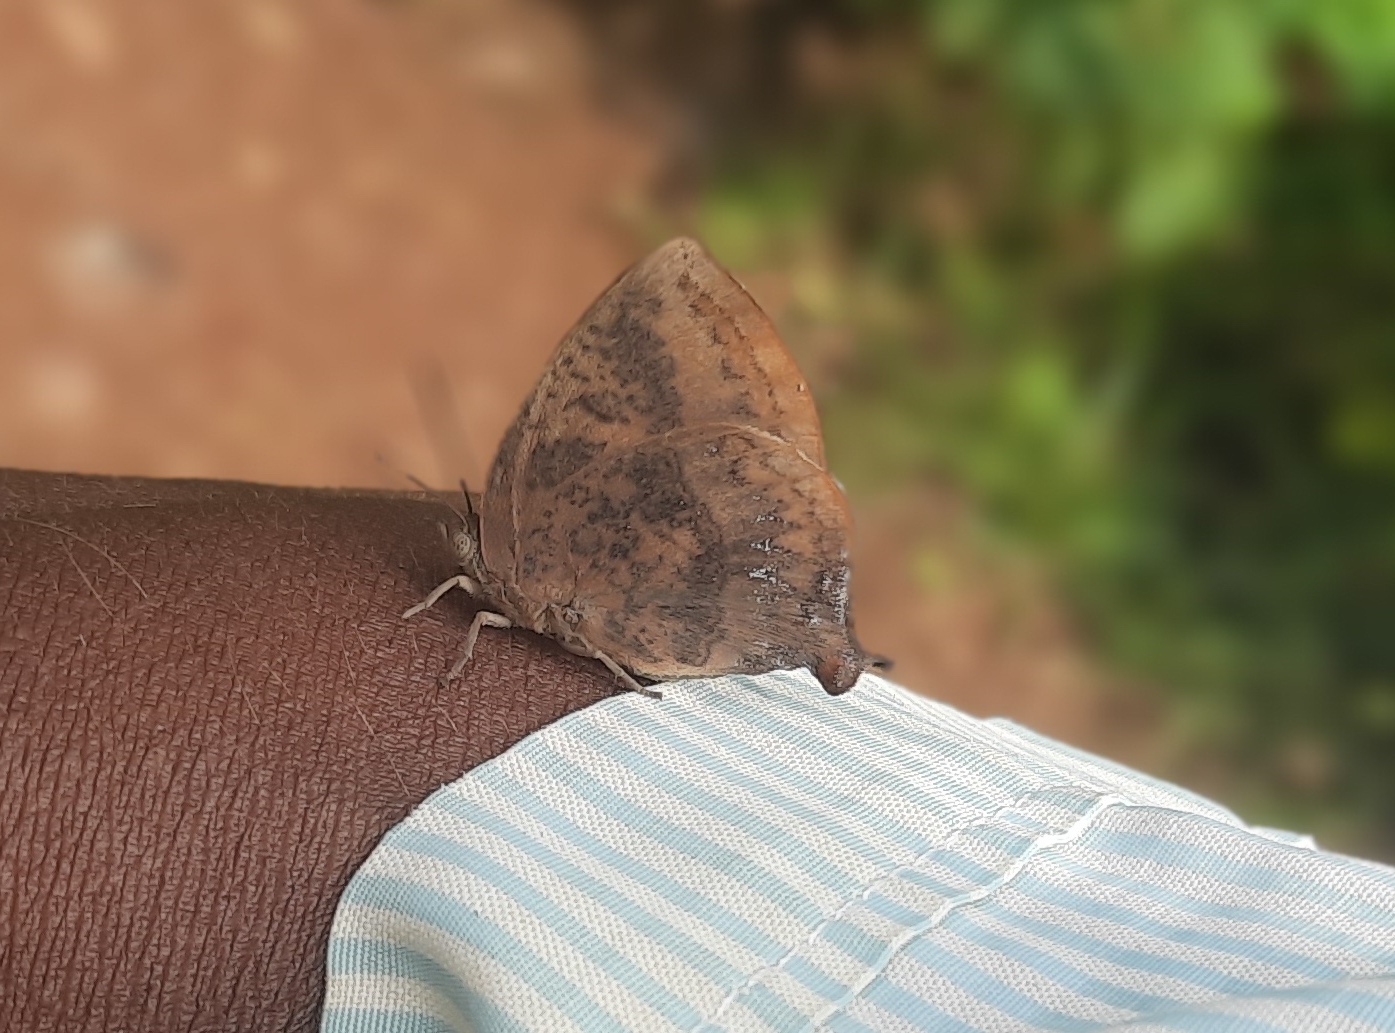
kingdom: Animalia
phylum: Arthropoda
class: Insecta
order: Lepidoptera
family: Lycaenidae
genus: Amblypodia
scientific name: Amblypodia anita
